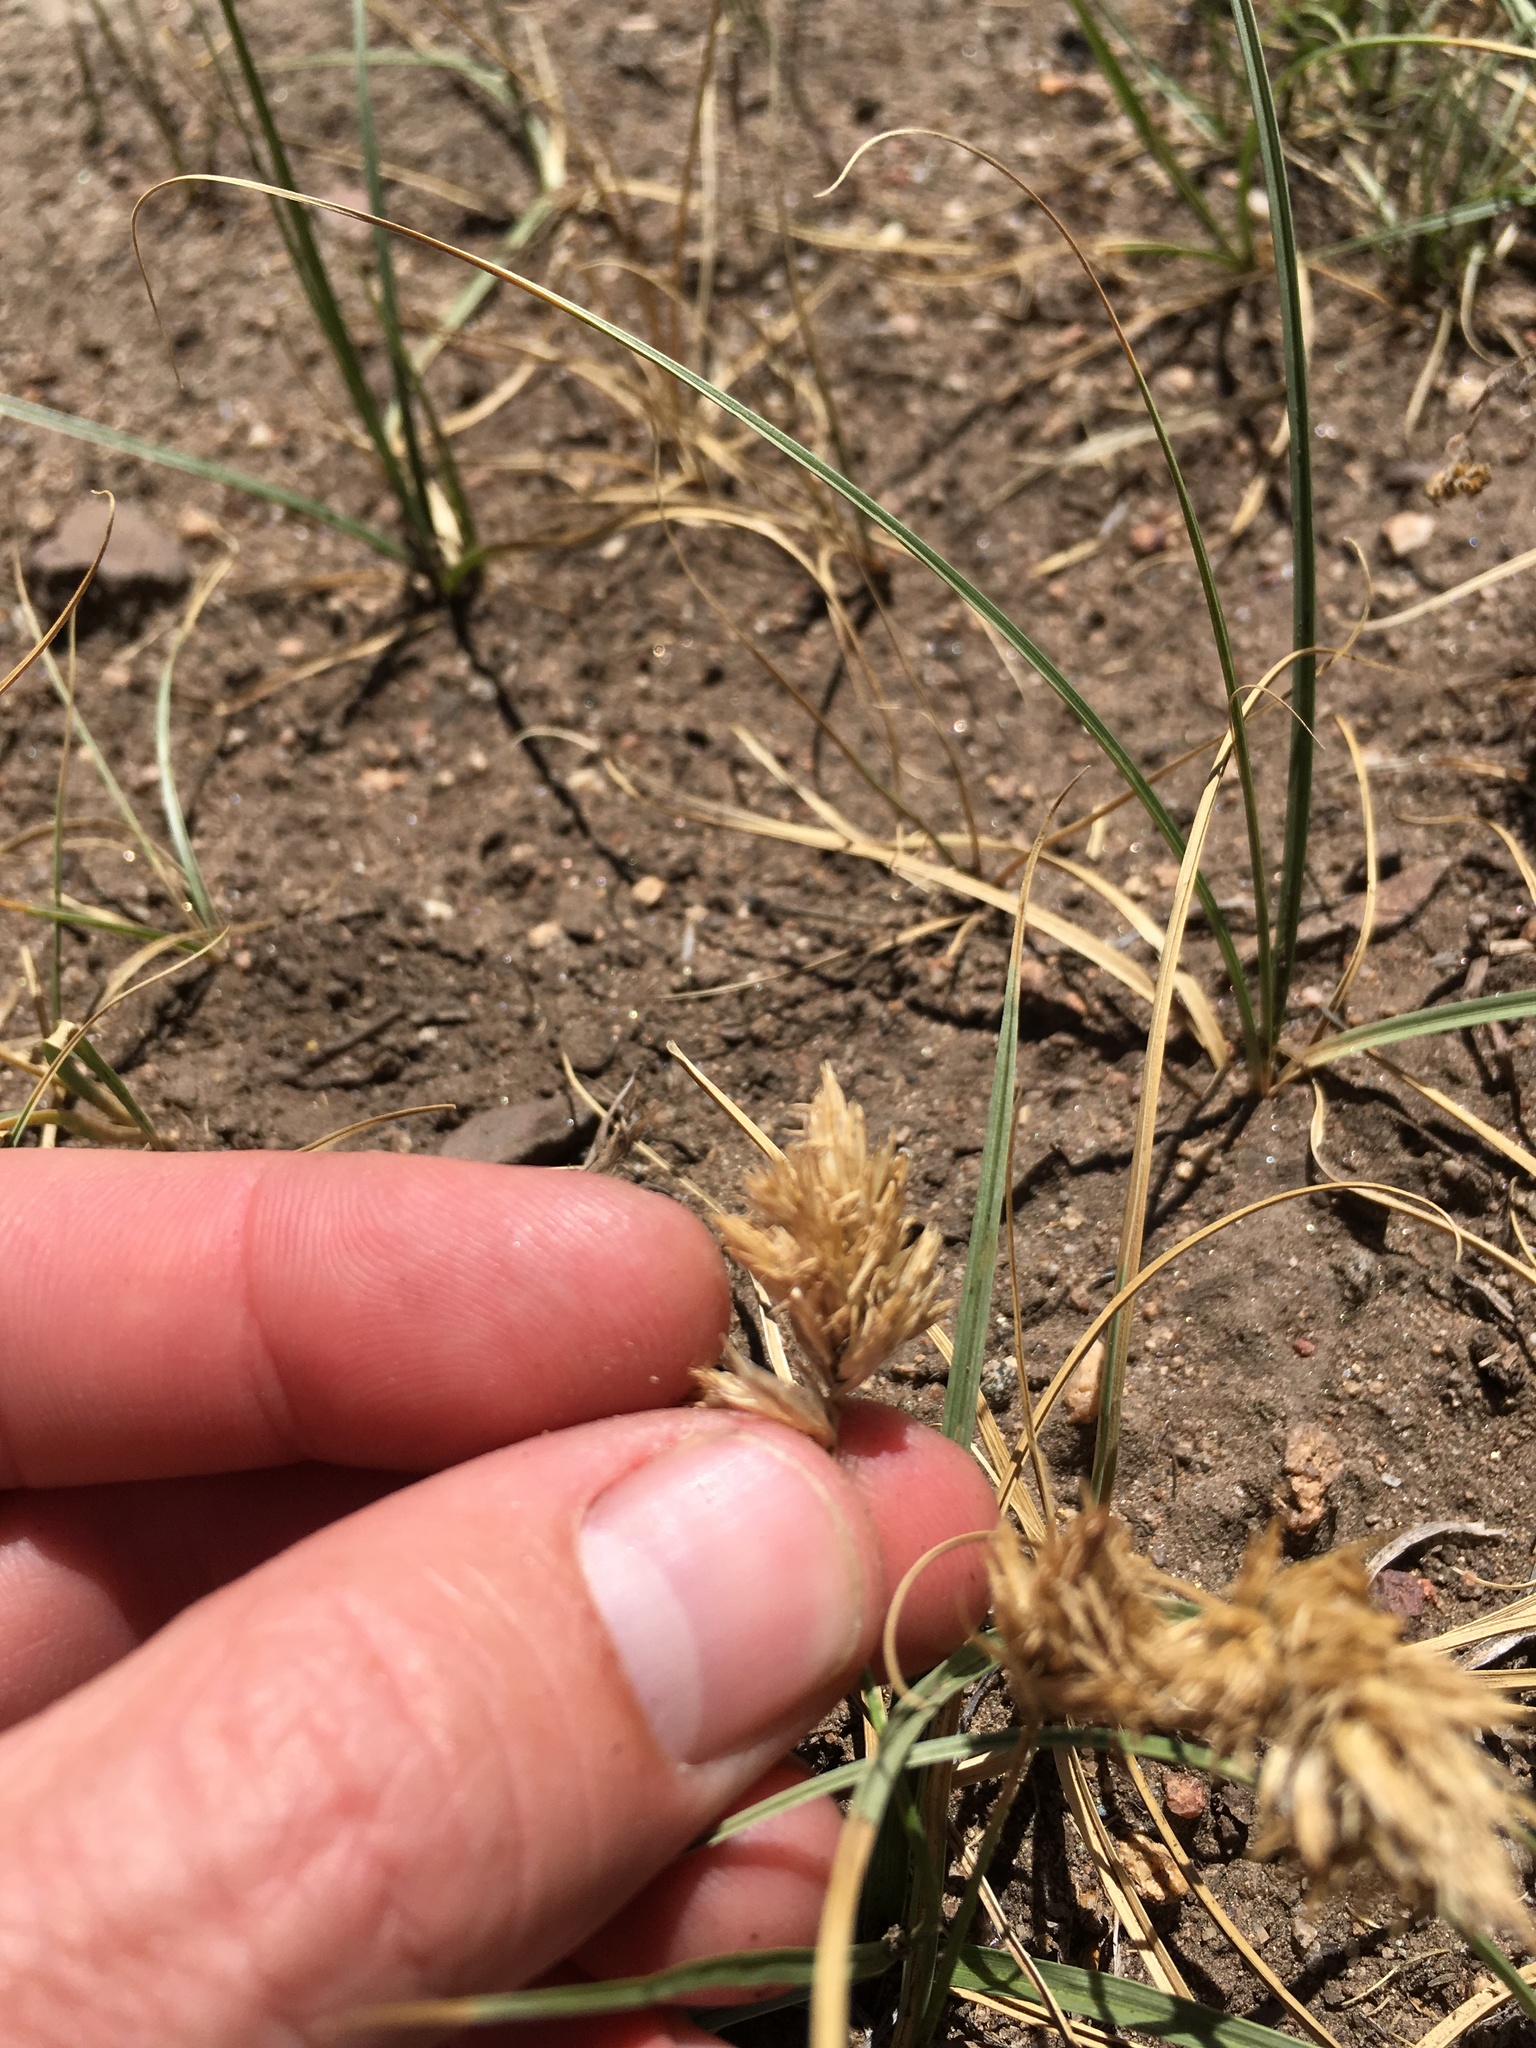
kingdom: Plantae
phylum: Tracheophyta
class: Liliopsida
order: Poales
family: Cyperaceae
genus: Carex
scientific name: Carex douglasii
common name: Douglas' sedge
